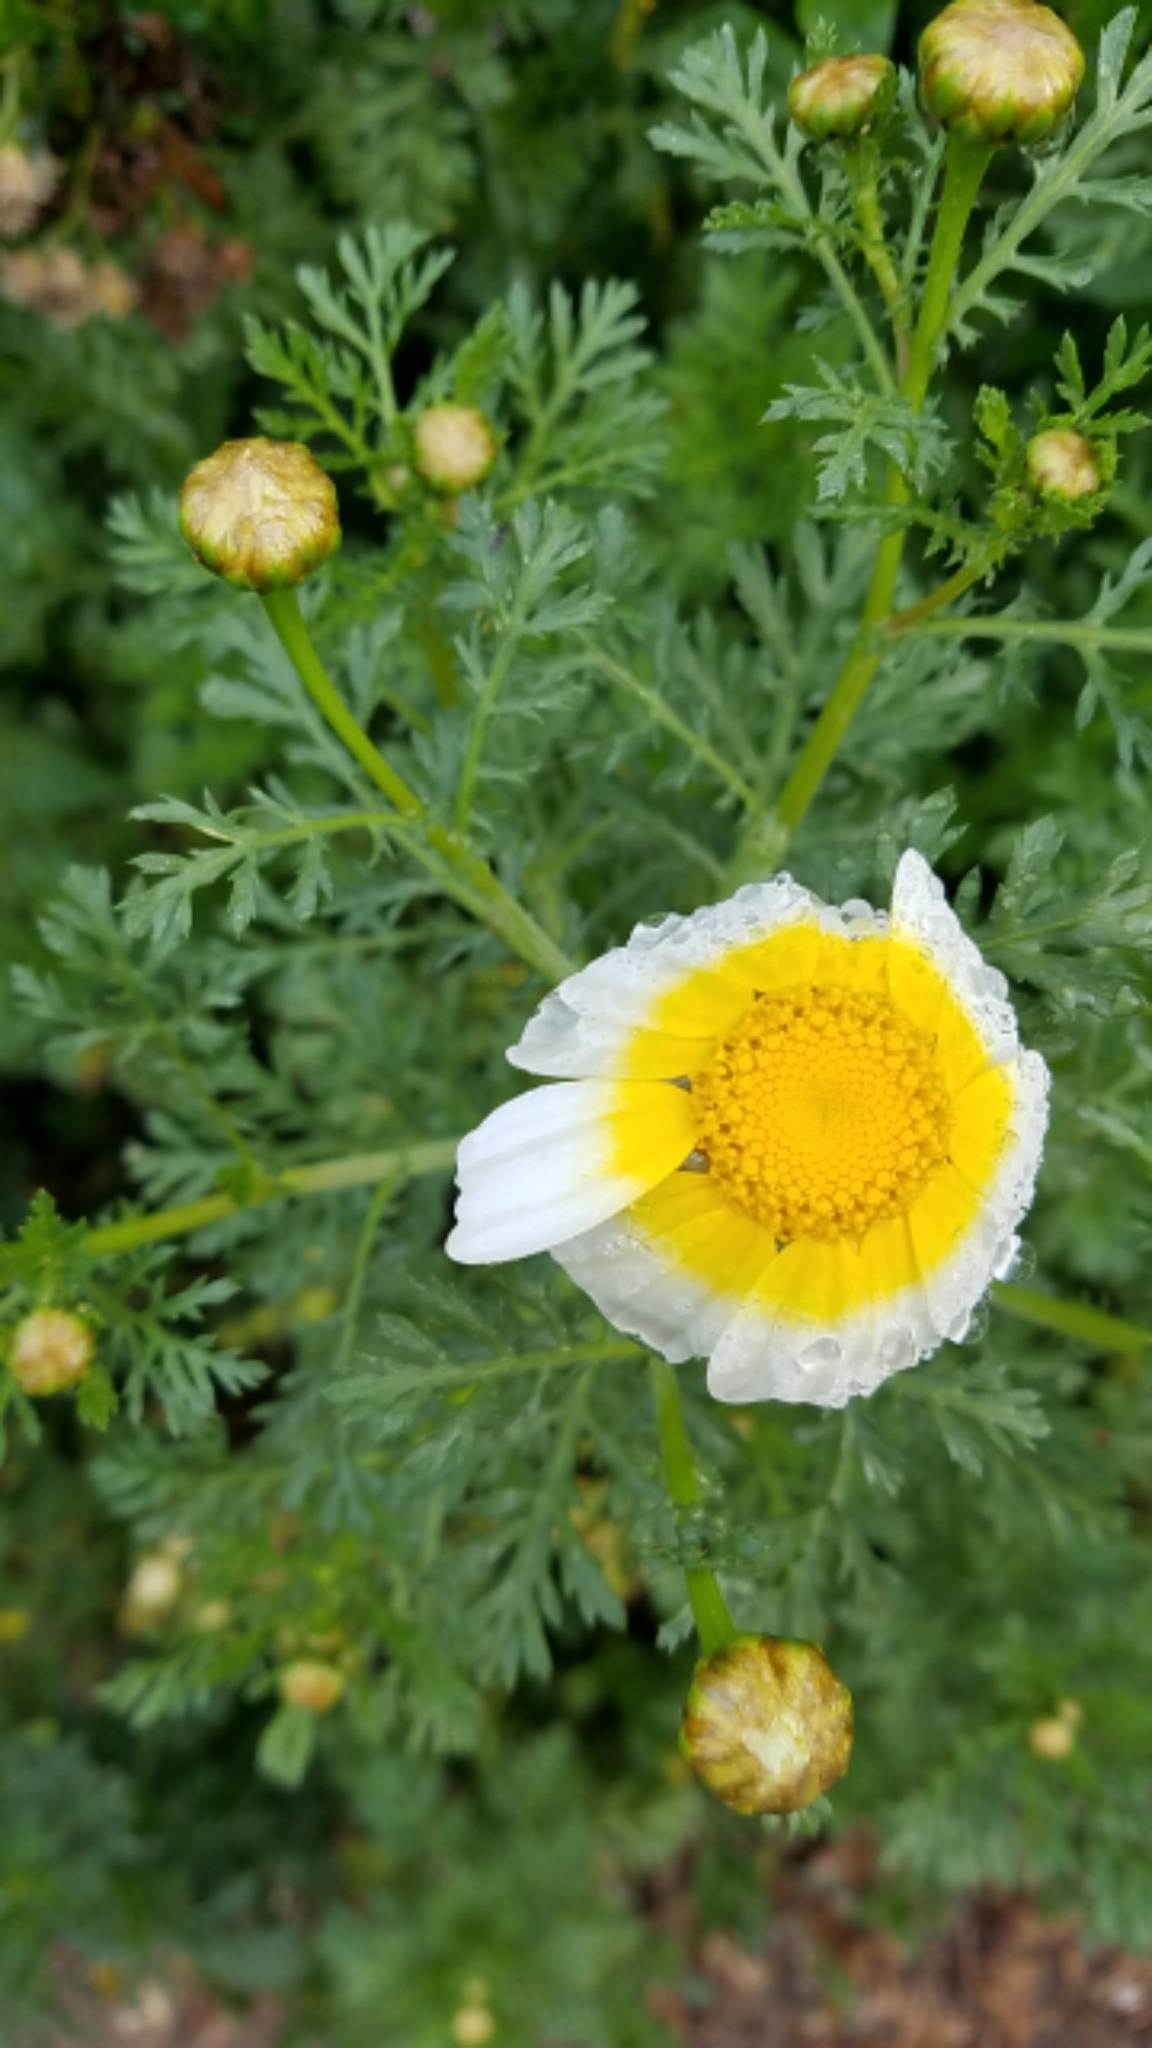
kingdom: Plantae
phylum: Tracheophyta
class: Magnoliopsida
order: Asterales
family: Asteraceae
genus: Glebionis
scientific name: Glebionis coronaria
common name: Crowndaisy
